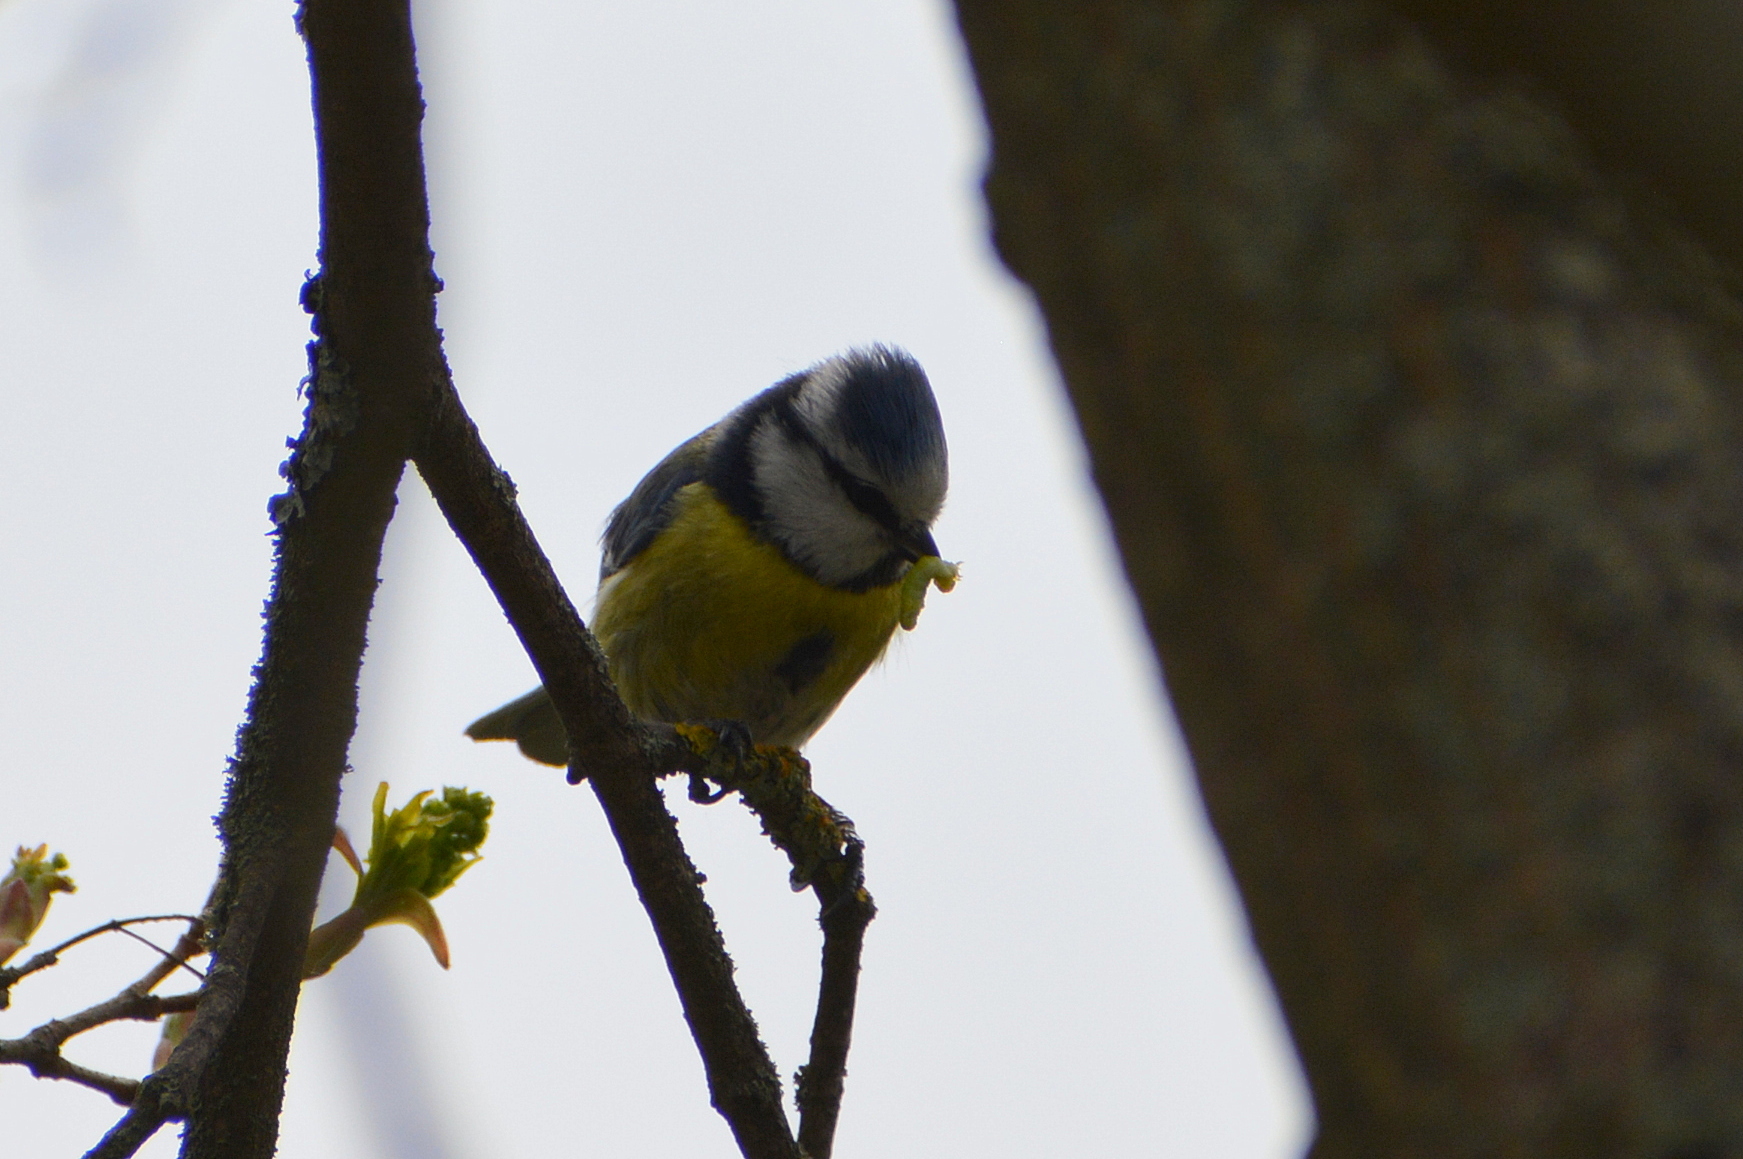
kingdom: Animalia
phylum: Chordata
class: Aves
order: Passeriformes
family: Paridae
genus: Cyanistes
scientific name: Cyanistes caeruleus
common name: Eurasian blue tit
